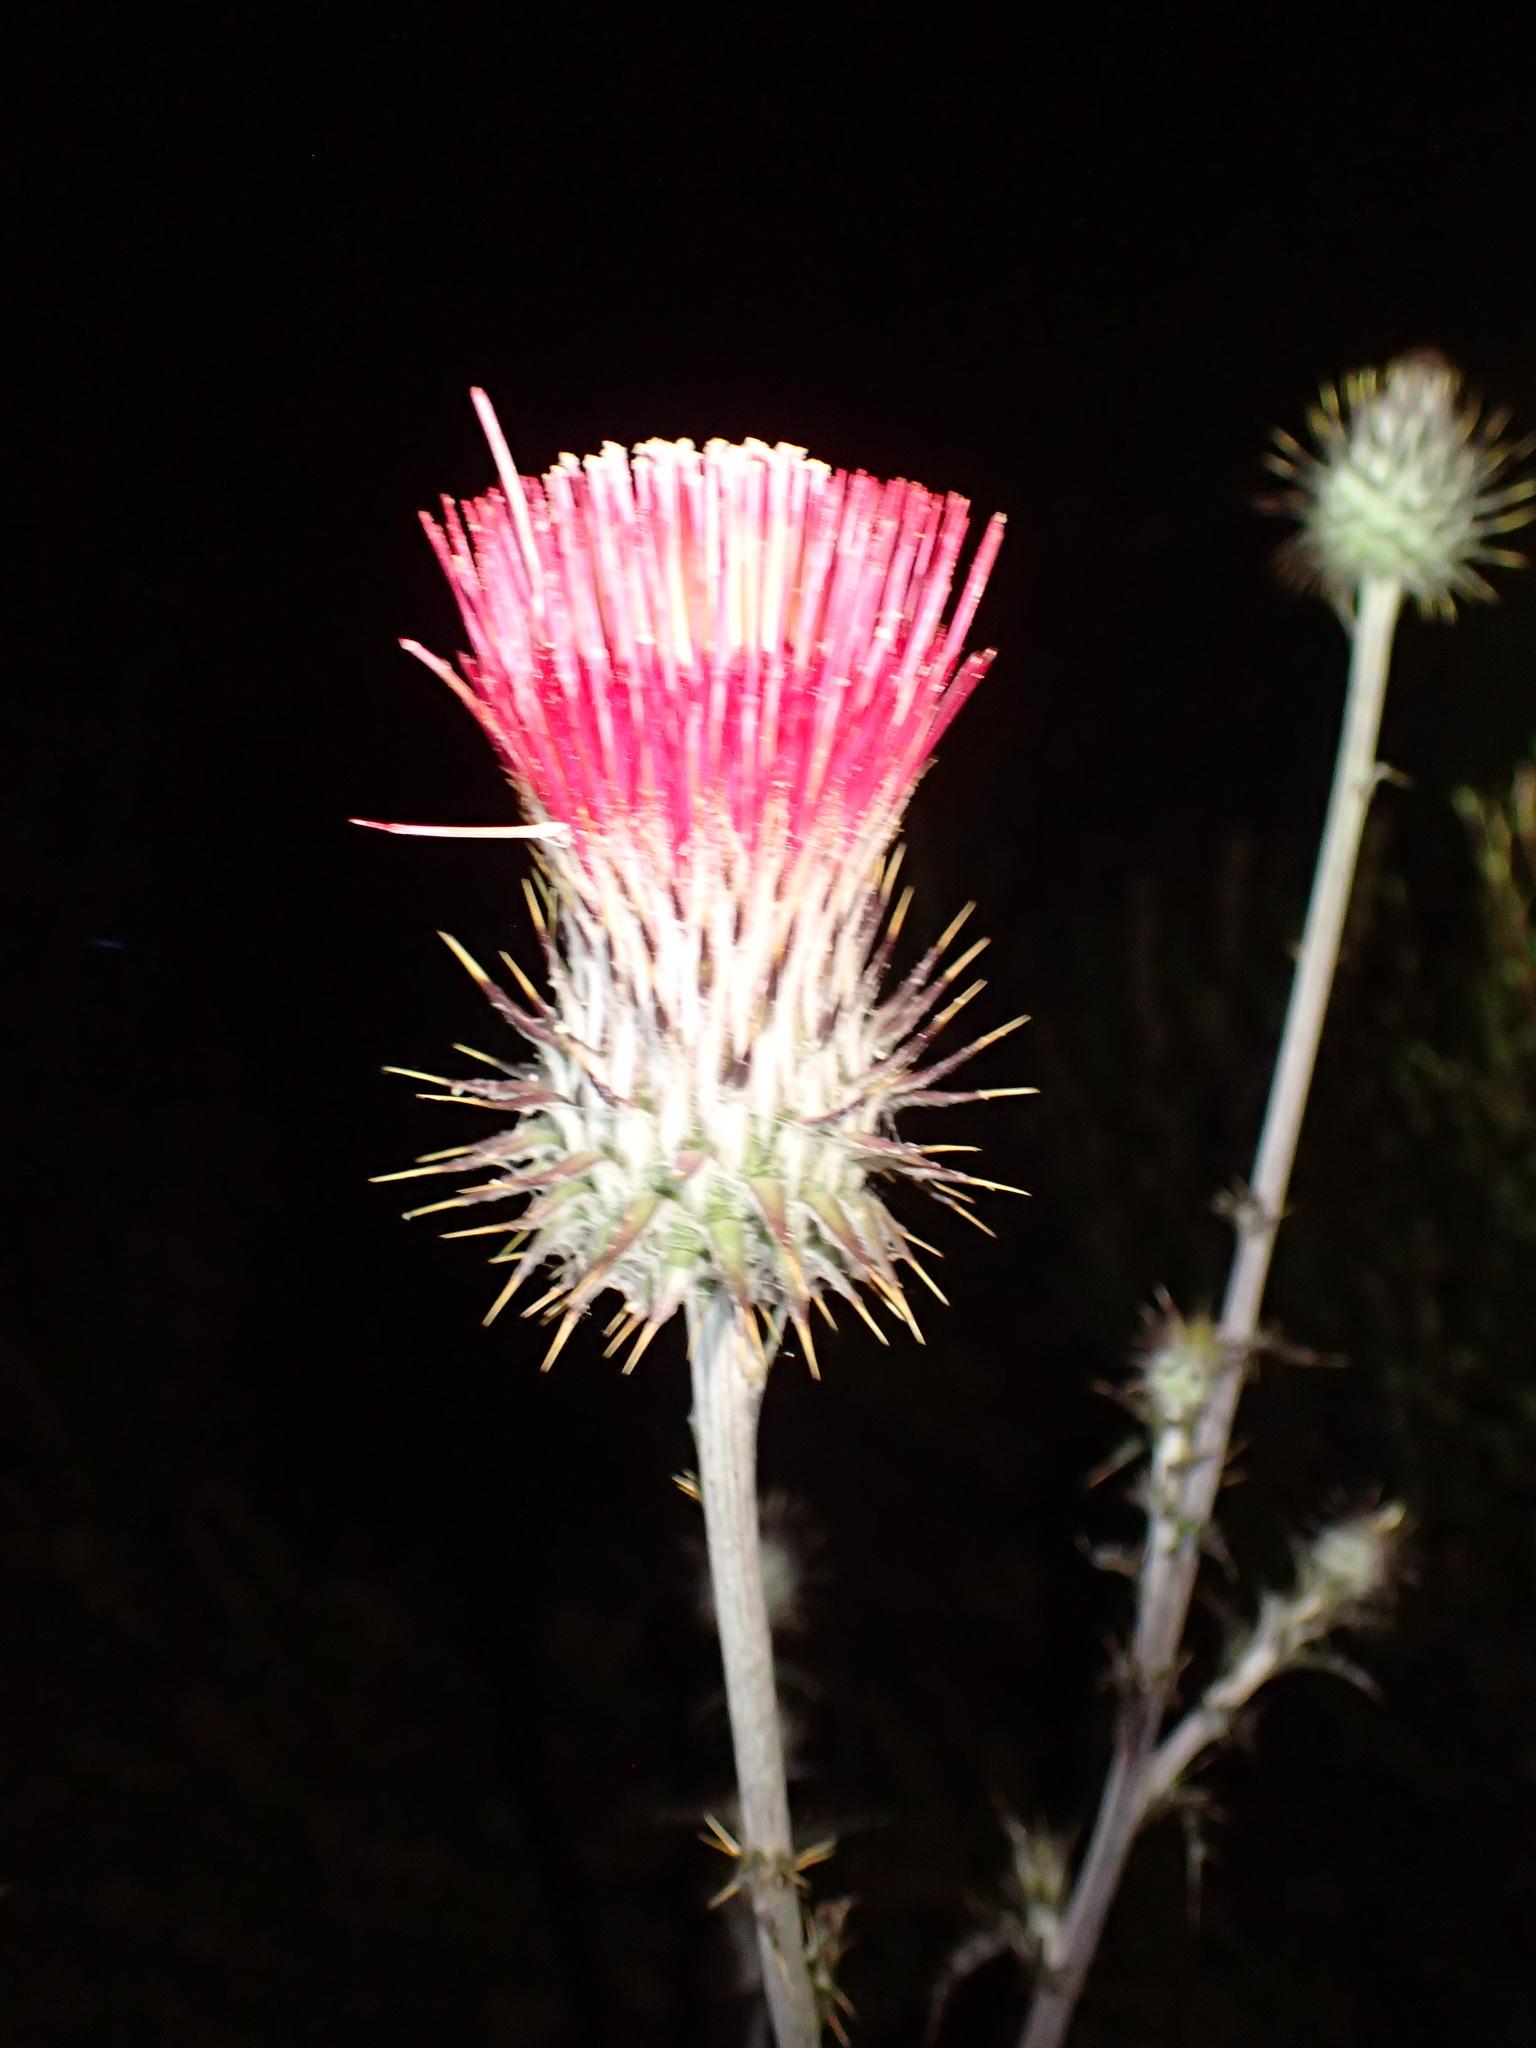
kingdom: Plantae
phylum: Tracheophyta
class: Magnoliopsida
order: Asterales
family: Asteraceae
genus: Cirsium
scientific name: Cirsium occidentale
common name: Western thistle
